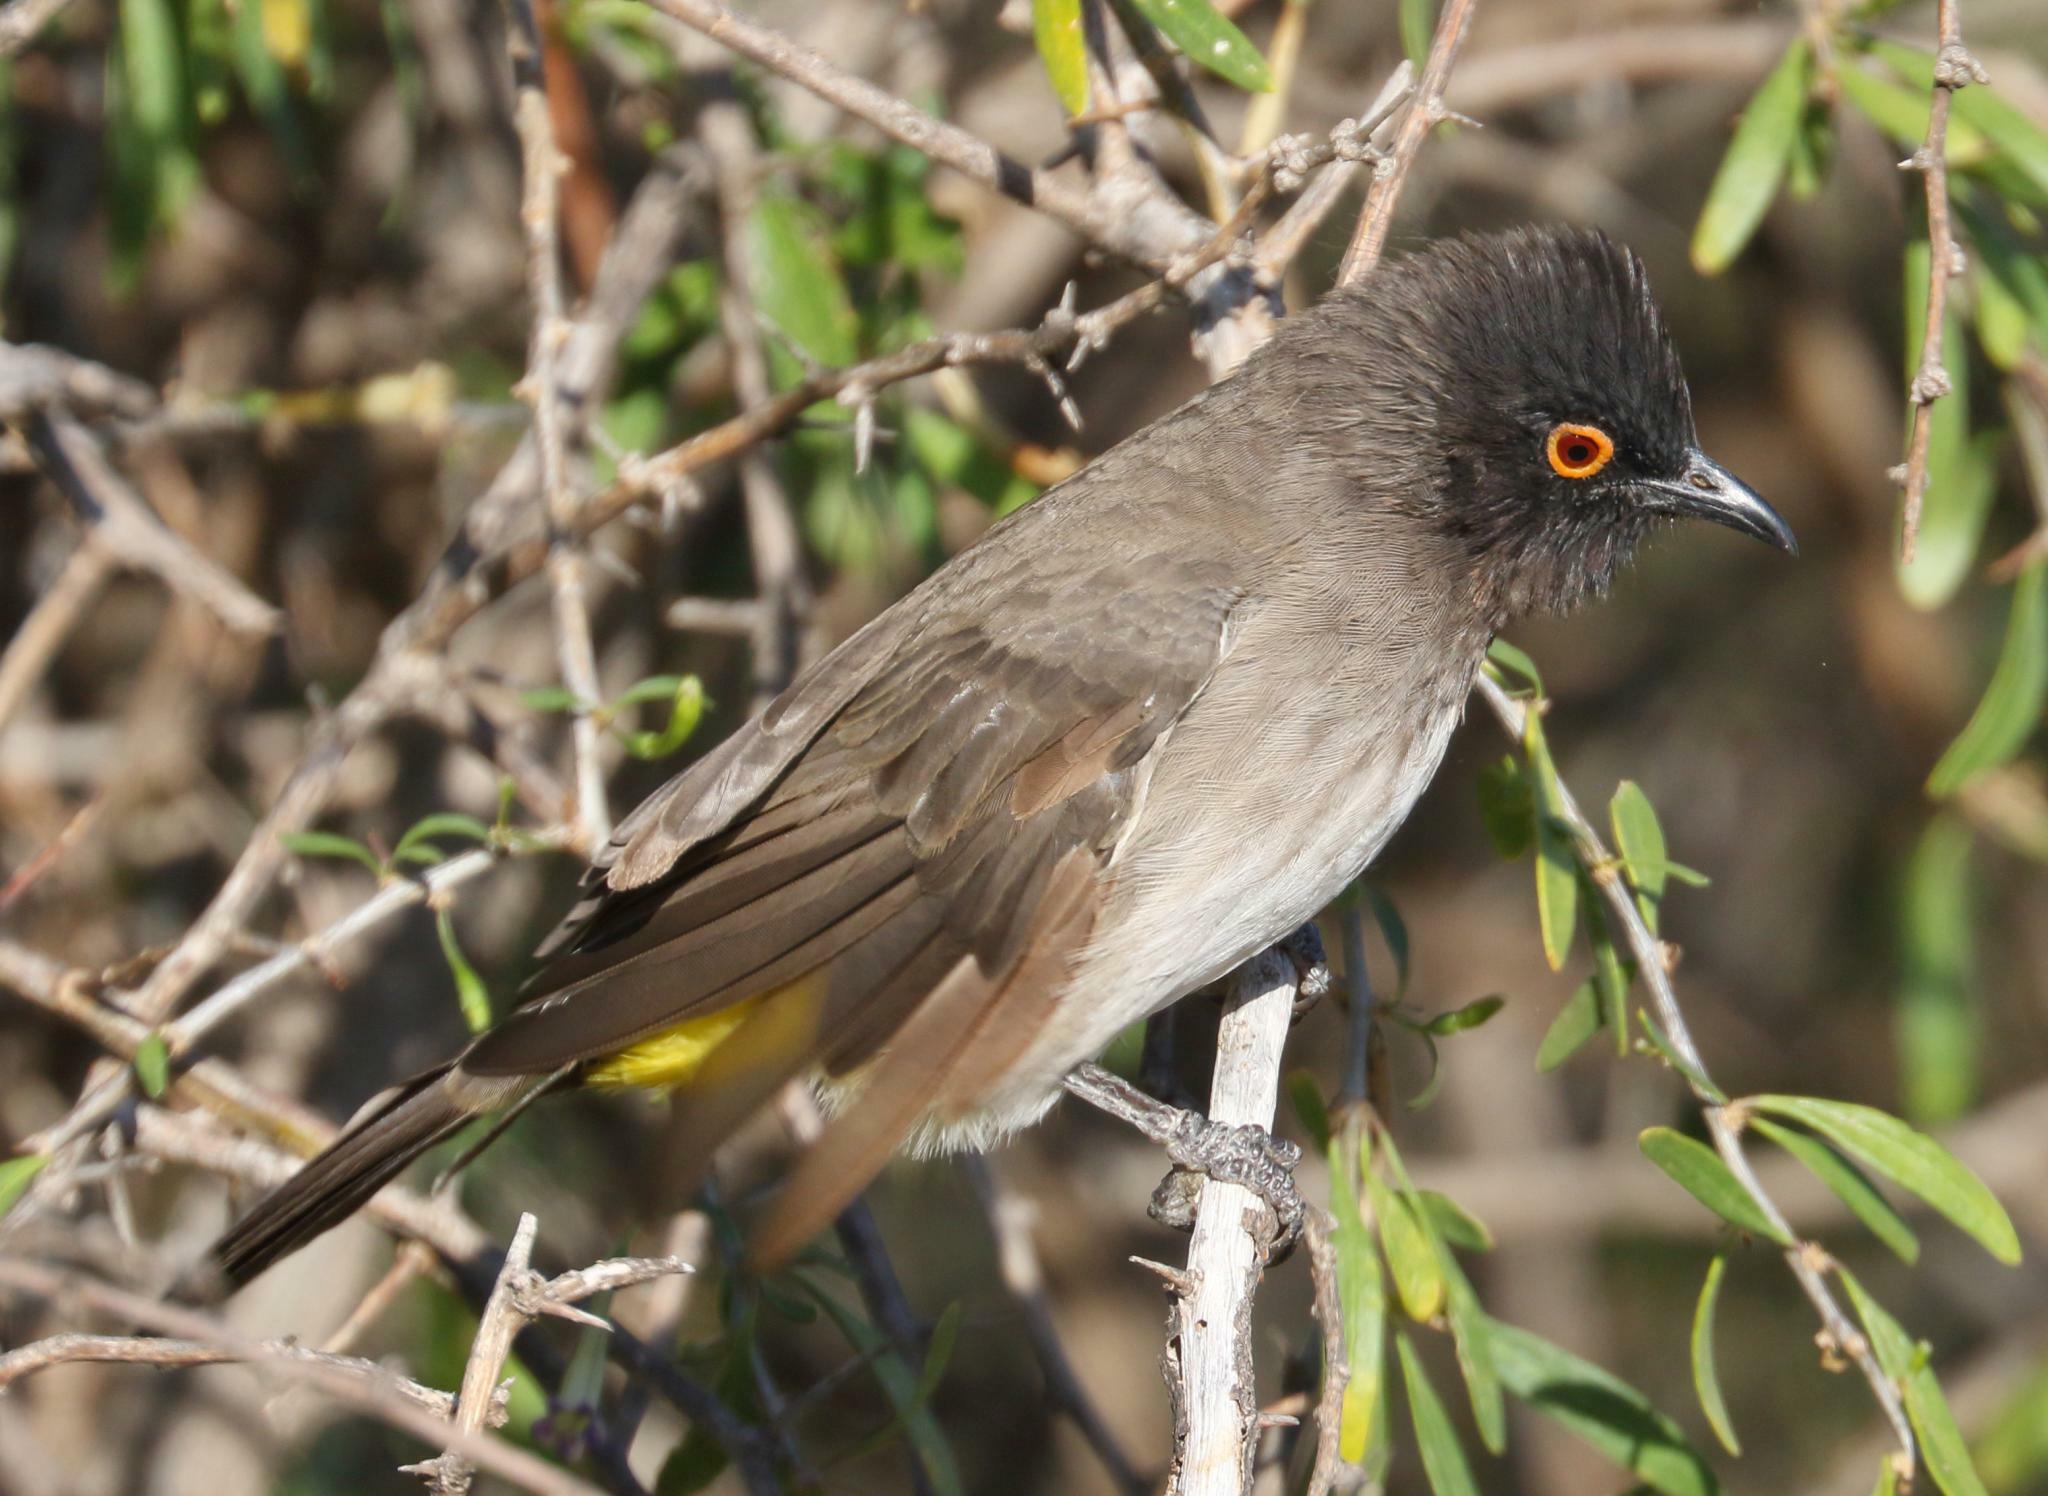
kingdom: Animalia
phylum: Chordata
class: Aves
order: Passeriformes
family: Pycnonotidae
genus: Pycnonotus
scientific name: Pycnonotus nigricans
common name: African red-eyed bulbul
